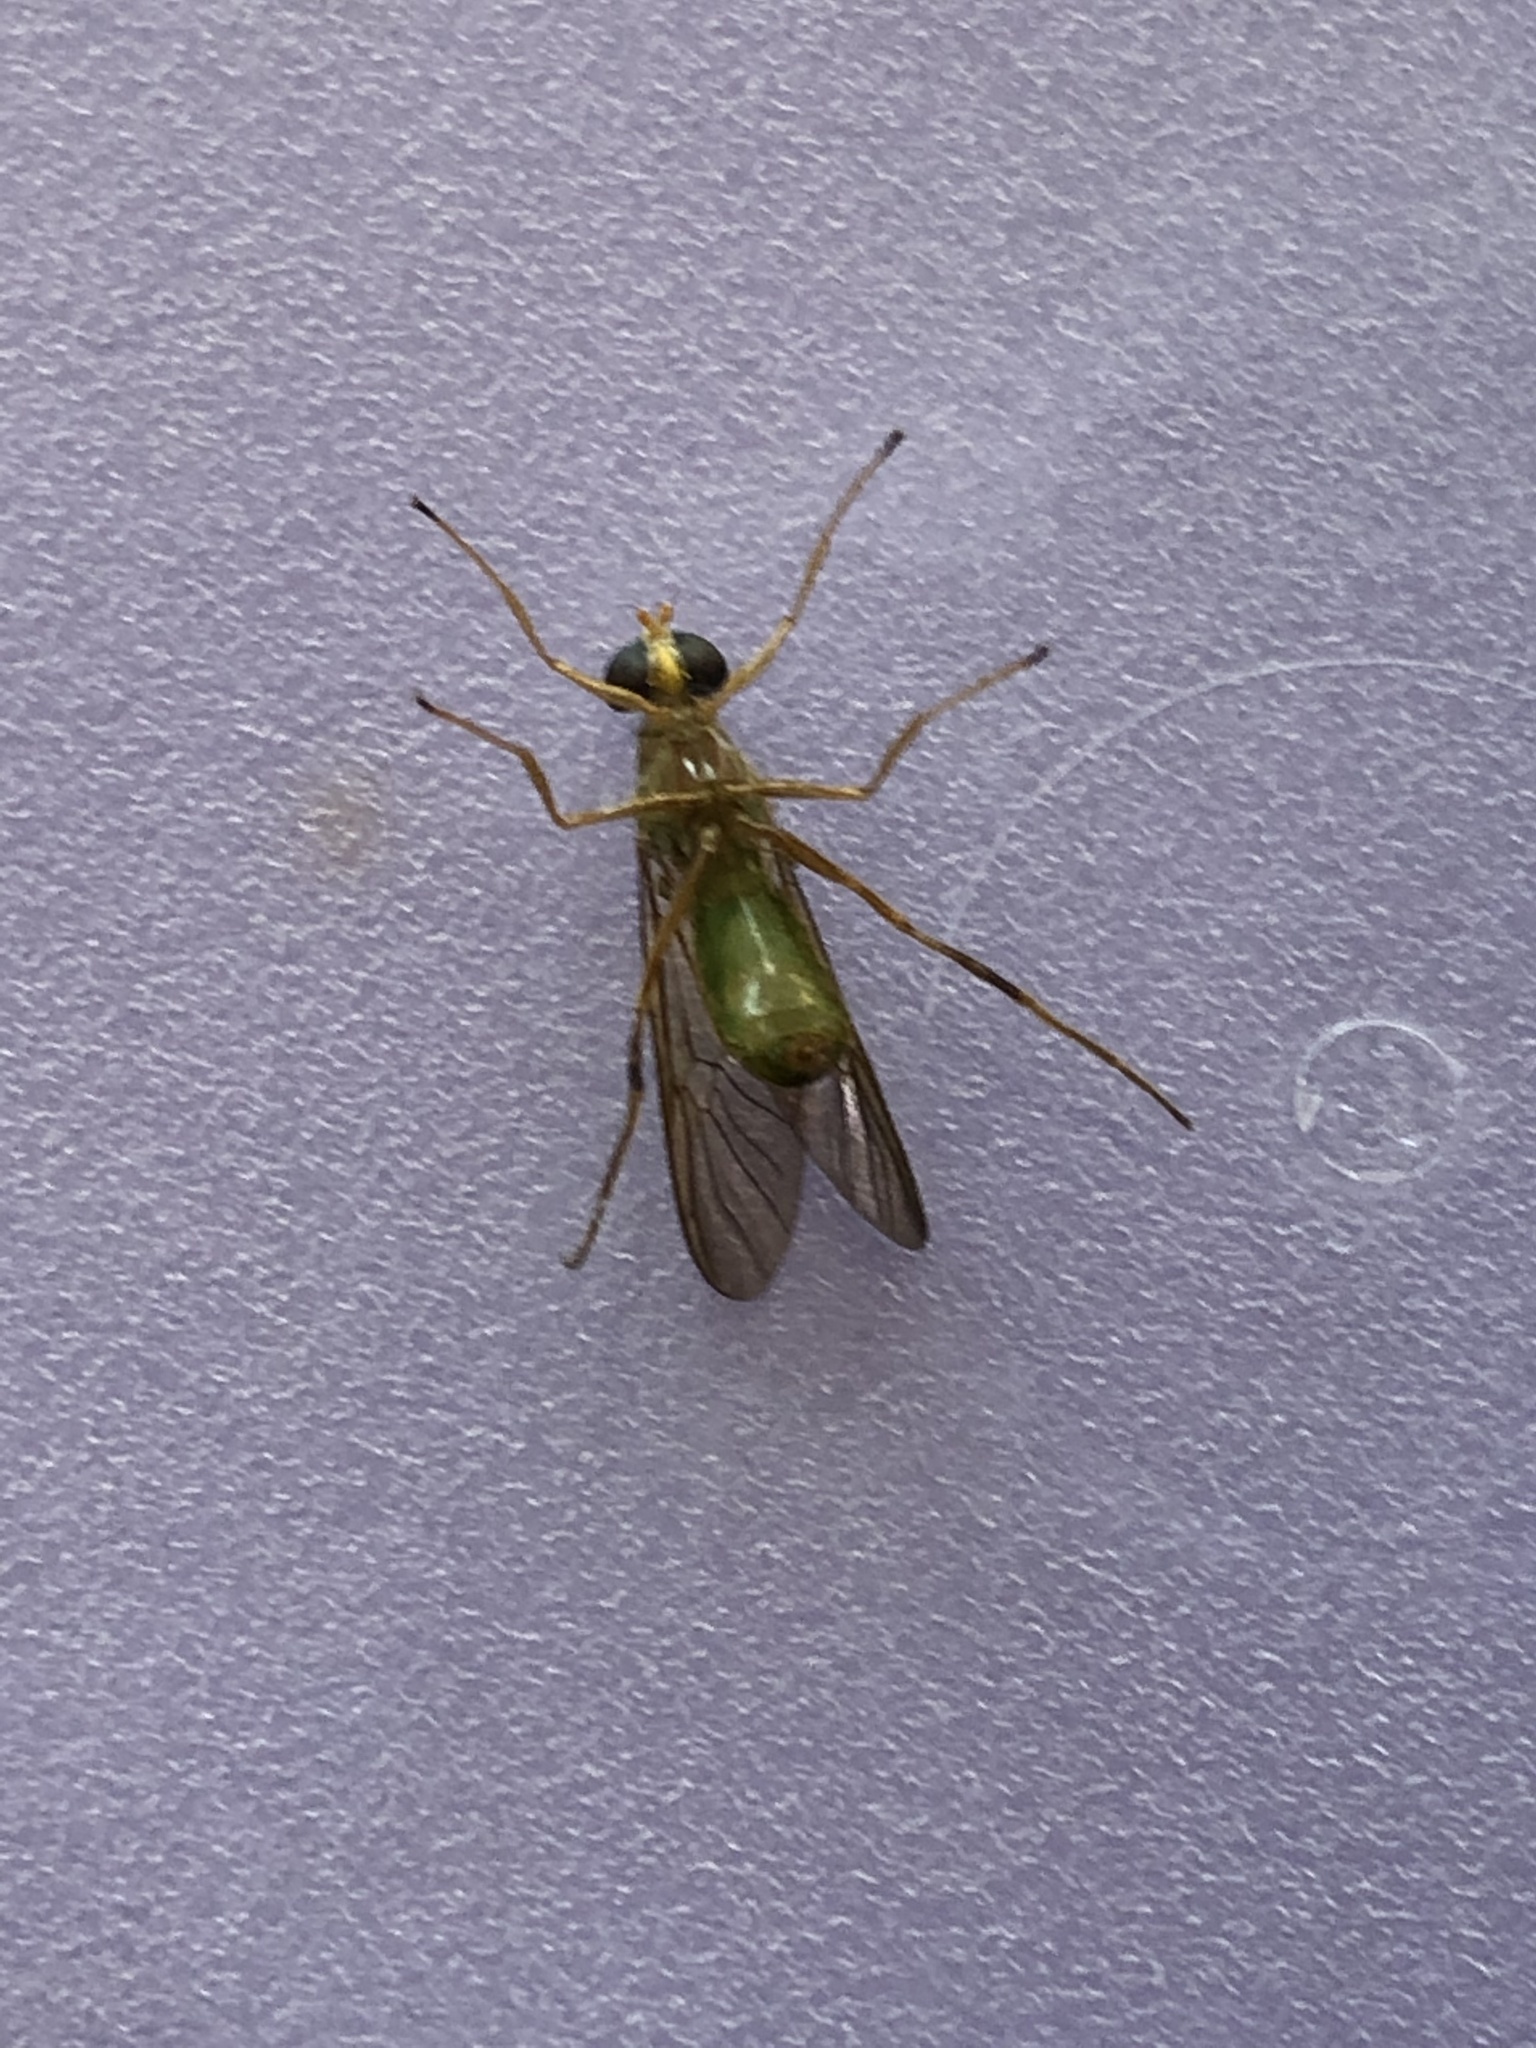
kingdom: Animalia
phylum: Arthropoda
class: Insecta
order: Diptera
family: Stratiomyidae
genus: Ptecticus
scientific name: Ptecticus trivittatus
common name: Compost fly
